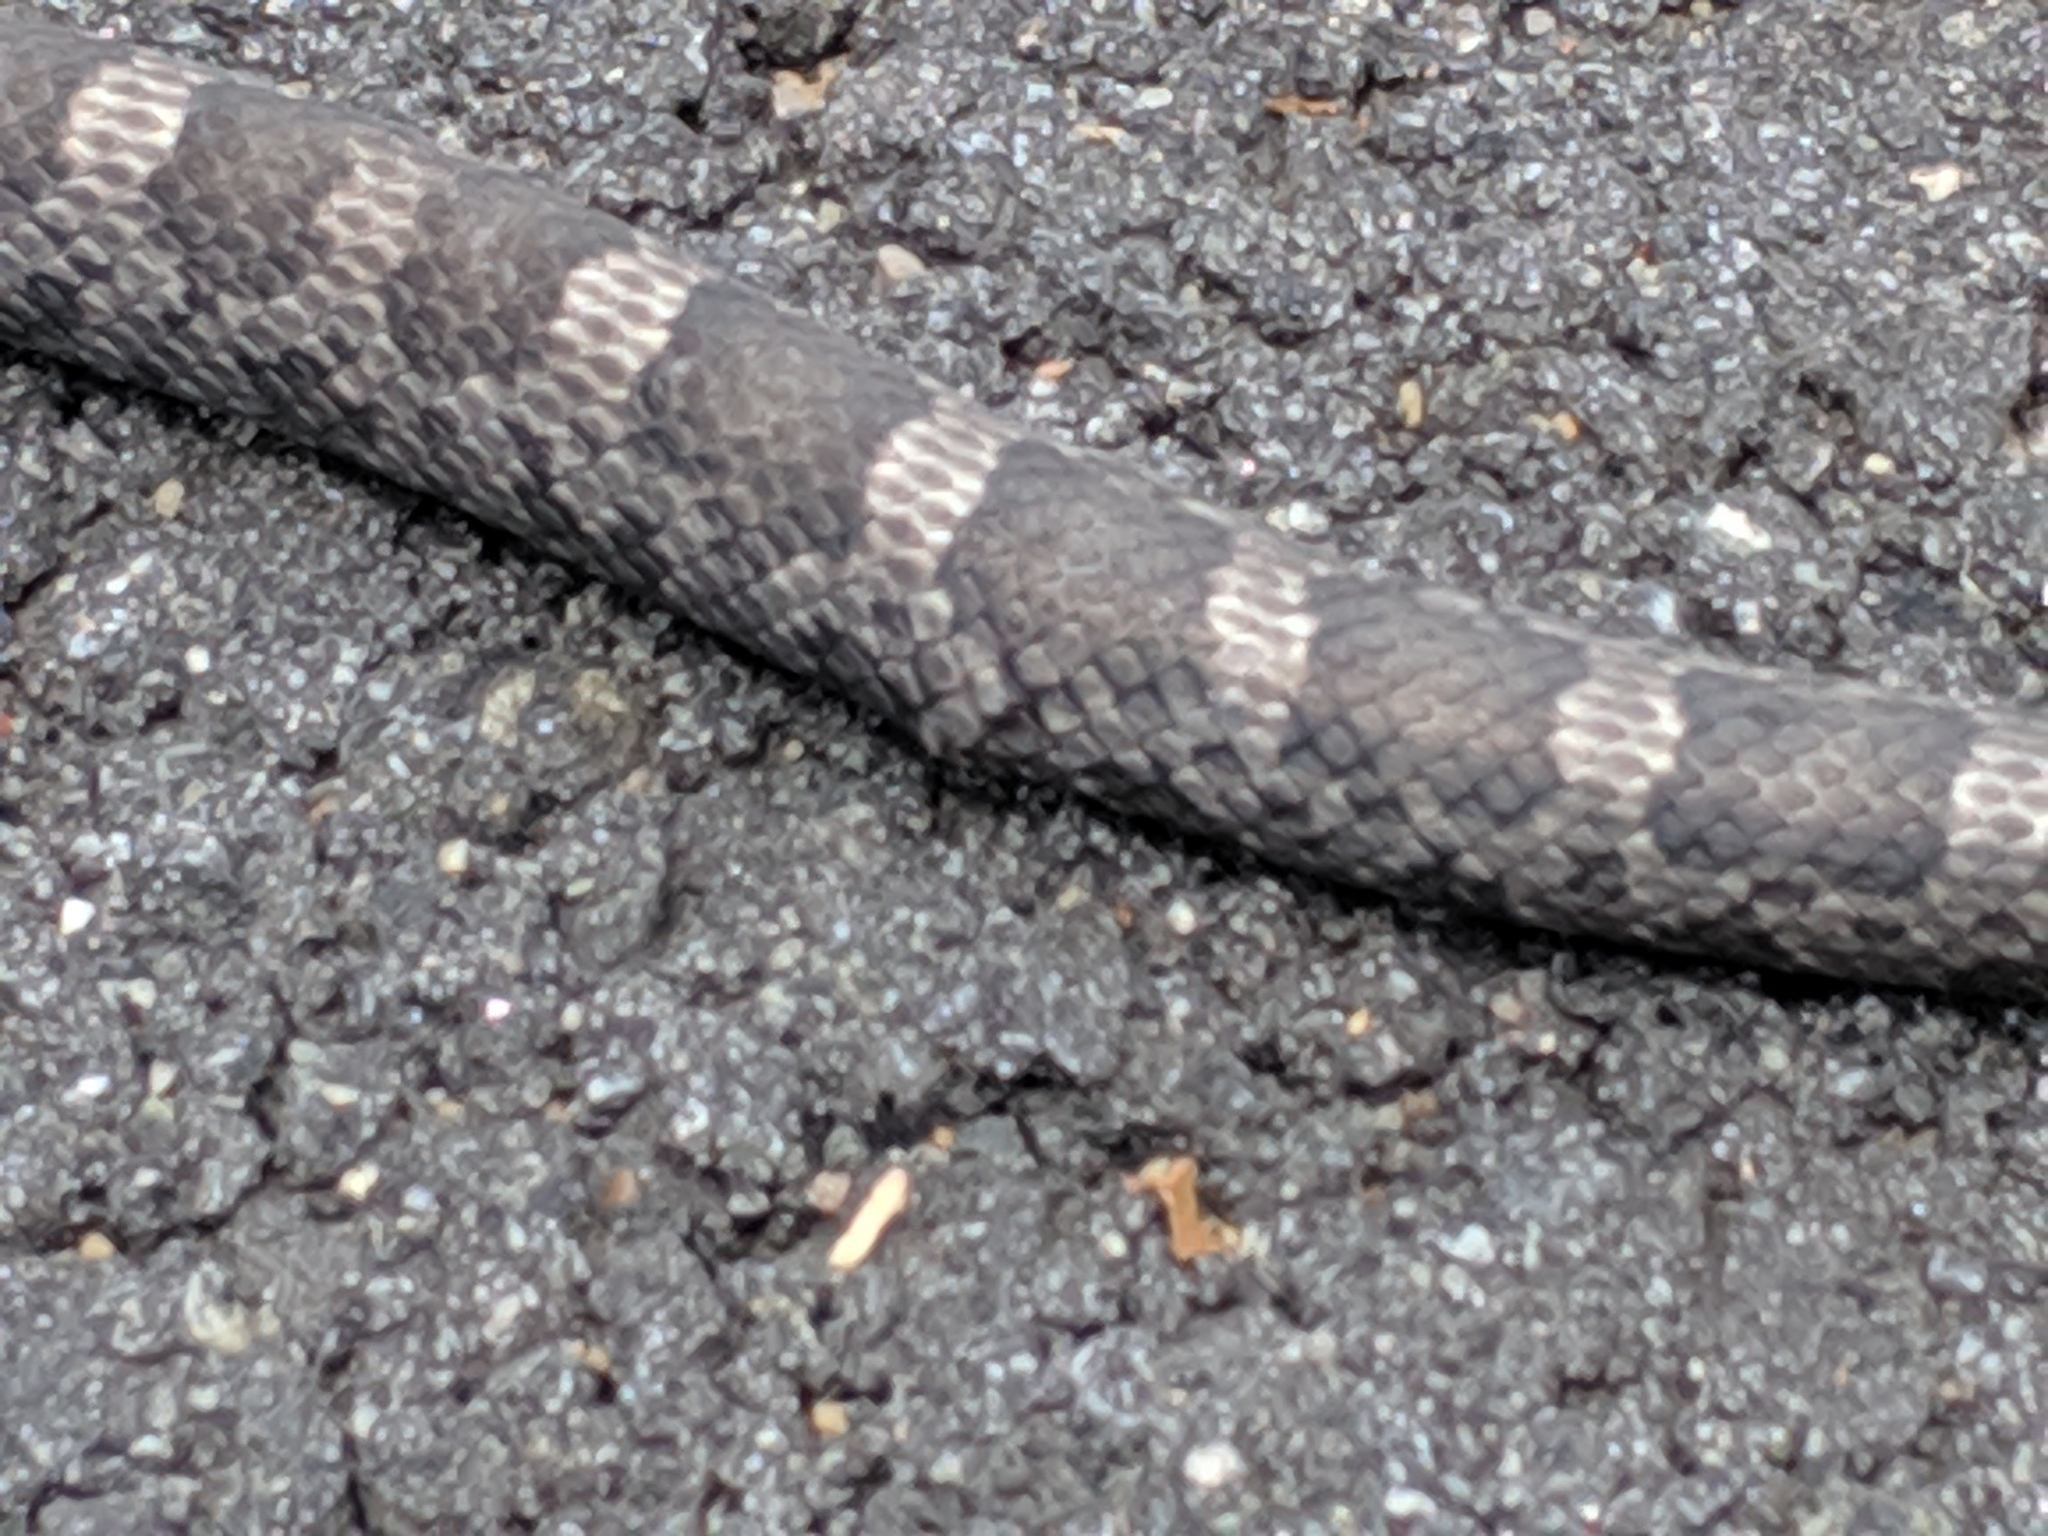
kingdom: Animalia
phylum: Chordata
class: Squamata
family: Colubridae
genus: Pantherophis
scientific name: Pantherophis alleghaniensis
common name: Eastern rat snake
